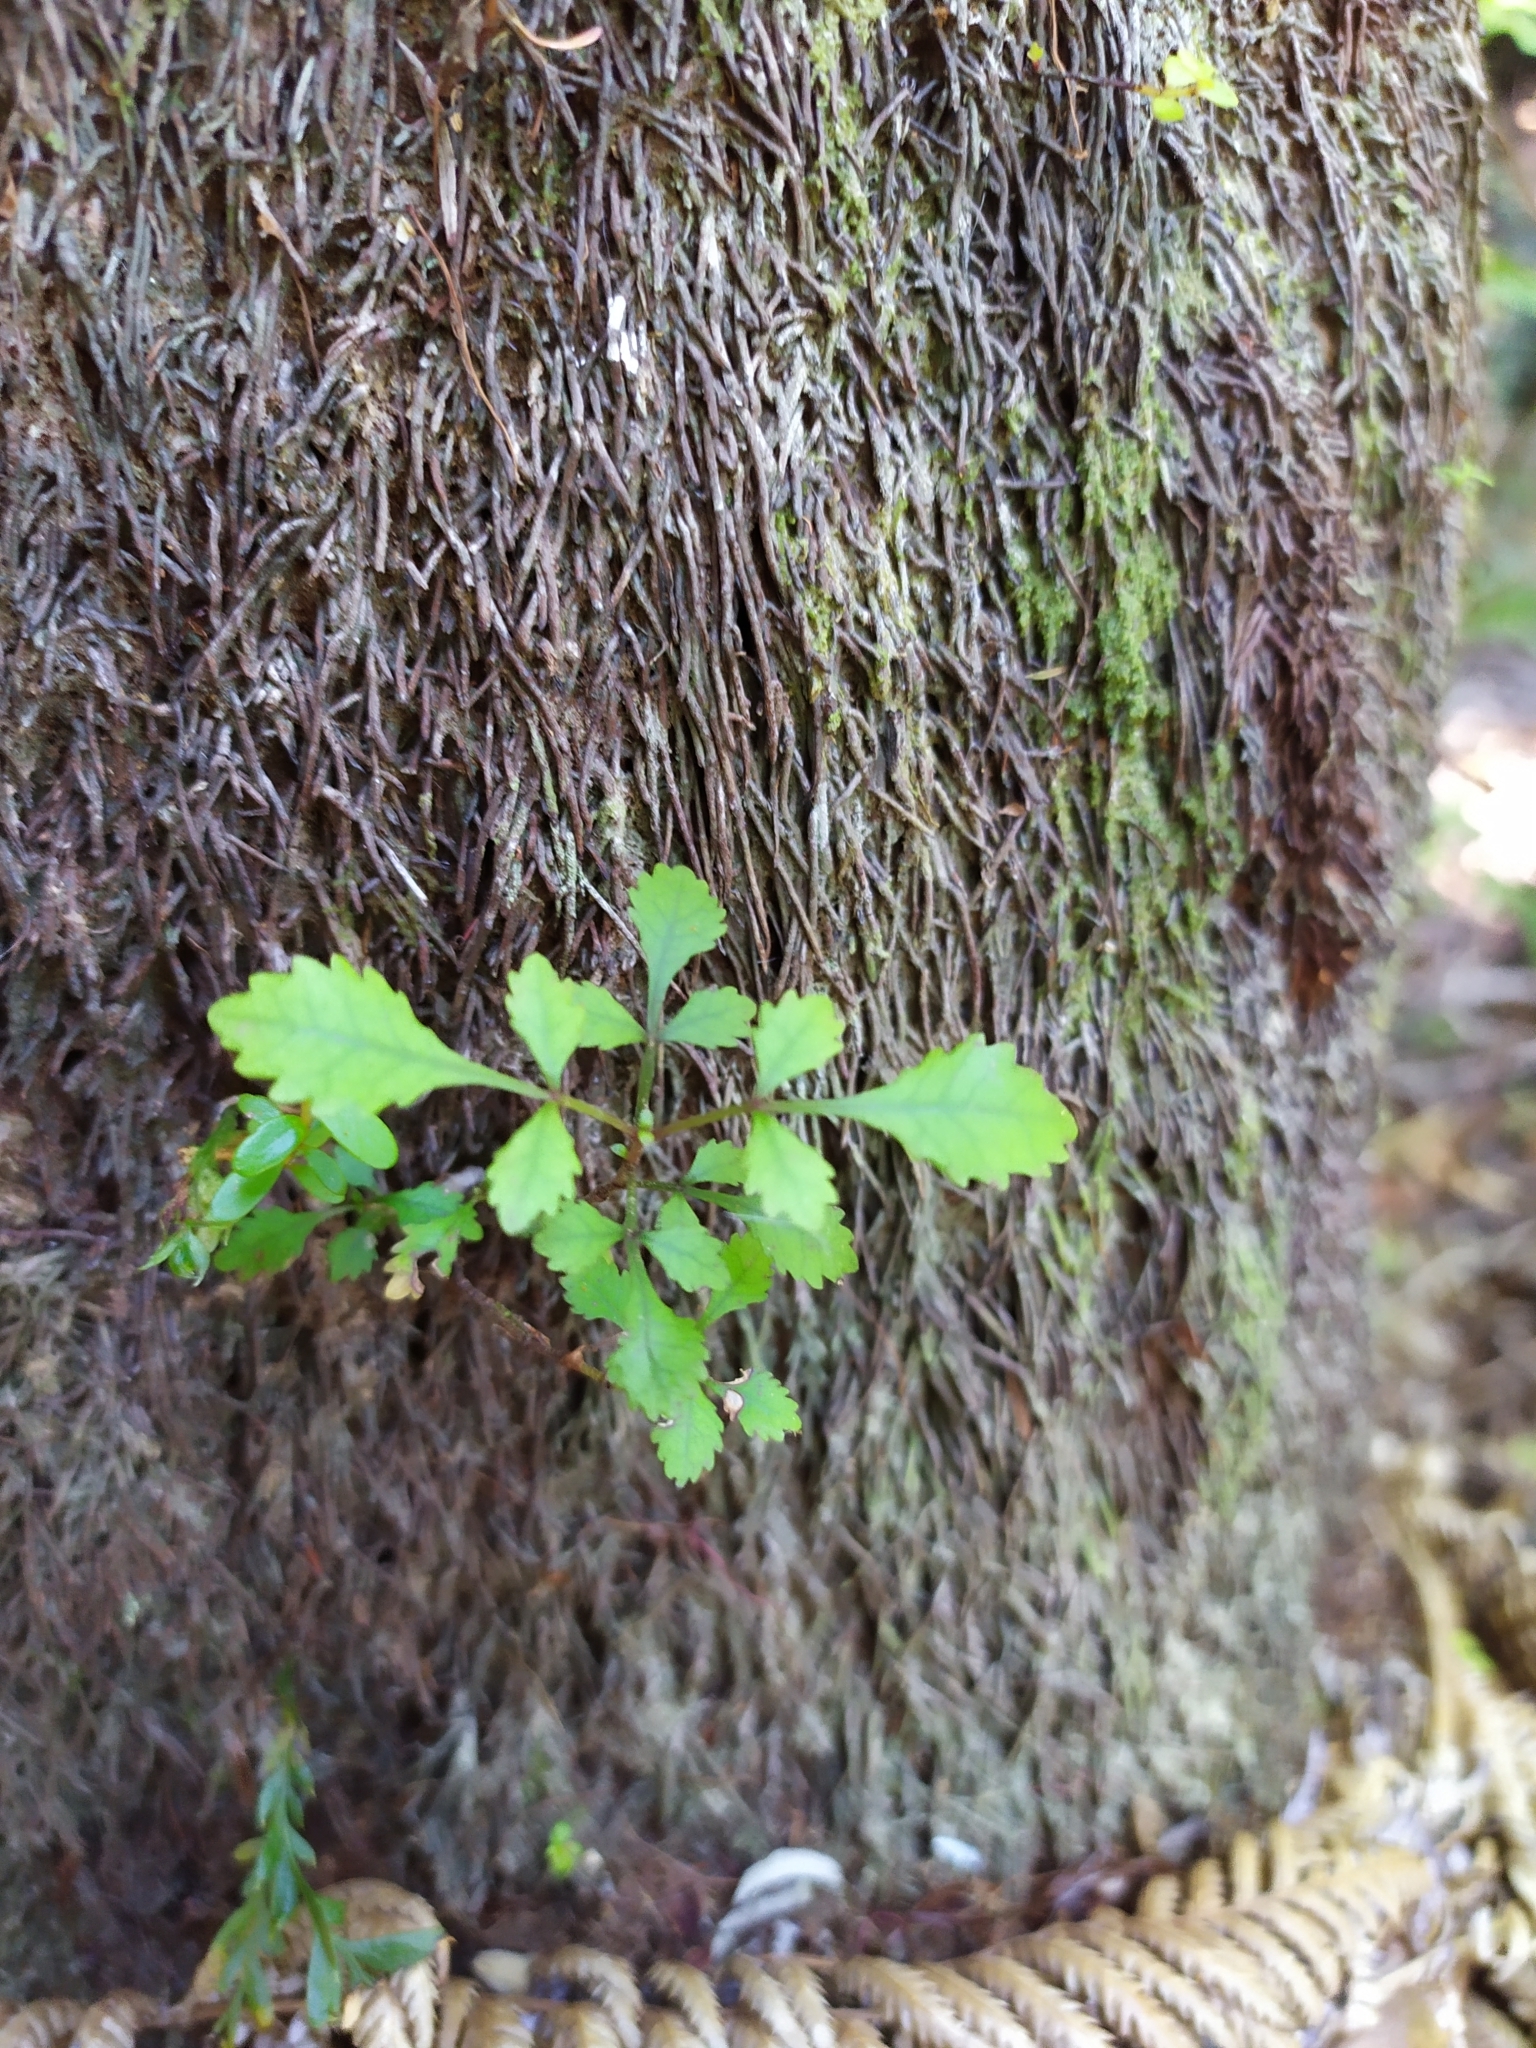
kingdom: Plantae
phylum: Tracheophyta
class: Magnoliopsida
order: Oxalidales
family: Cunoniaceae
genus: Pterophylla
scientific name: Pterophylla sylvicola
